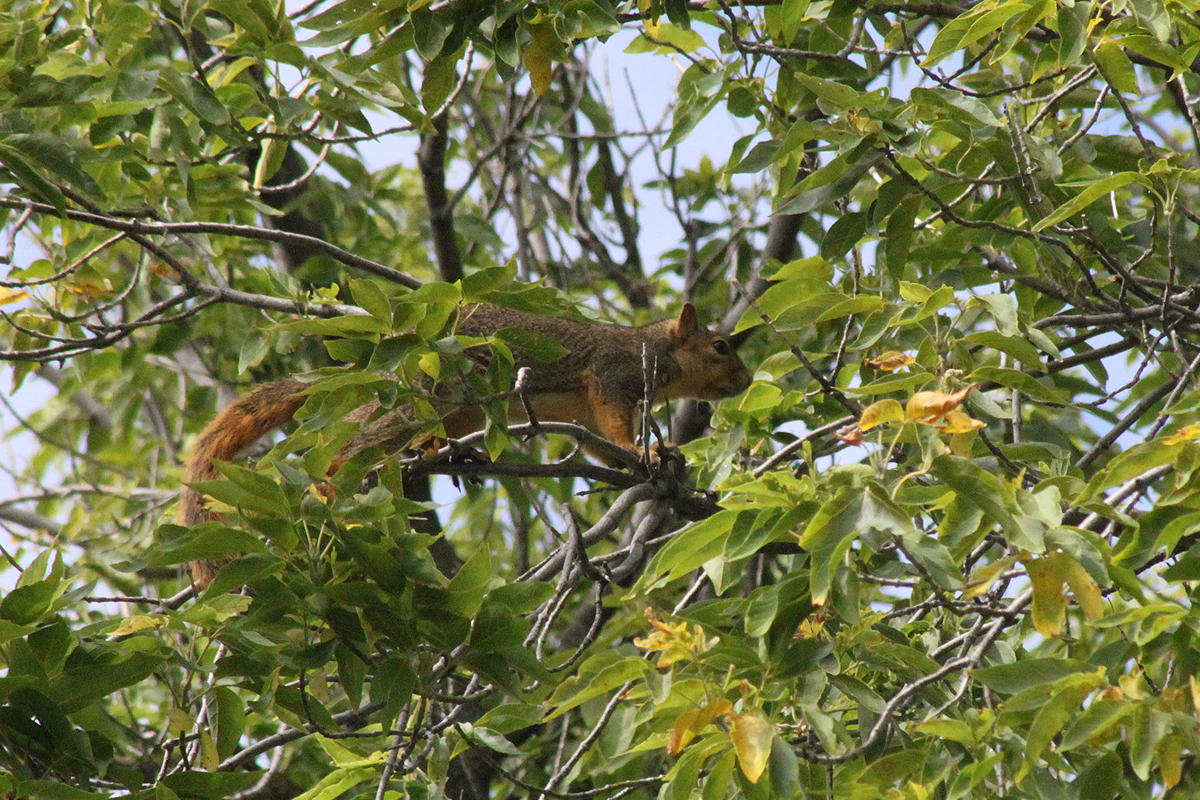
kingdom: Animalia
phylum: Chordata
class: Mammalia
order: Rodentia
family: Sciuridae
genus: Sciurus
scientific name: Sciurus niger
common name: Fox squirrel
